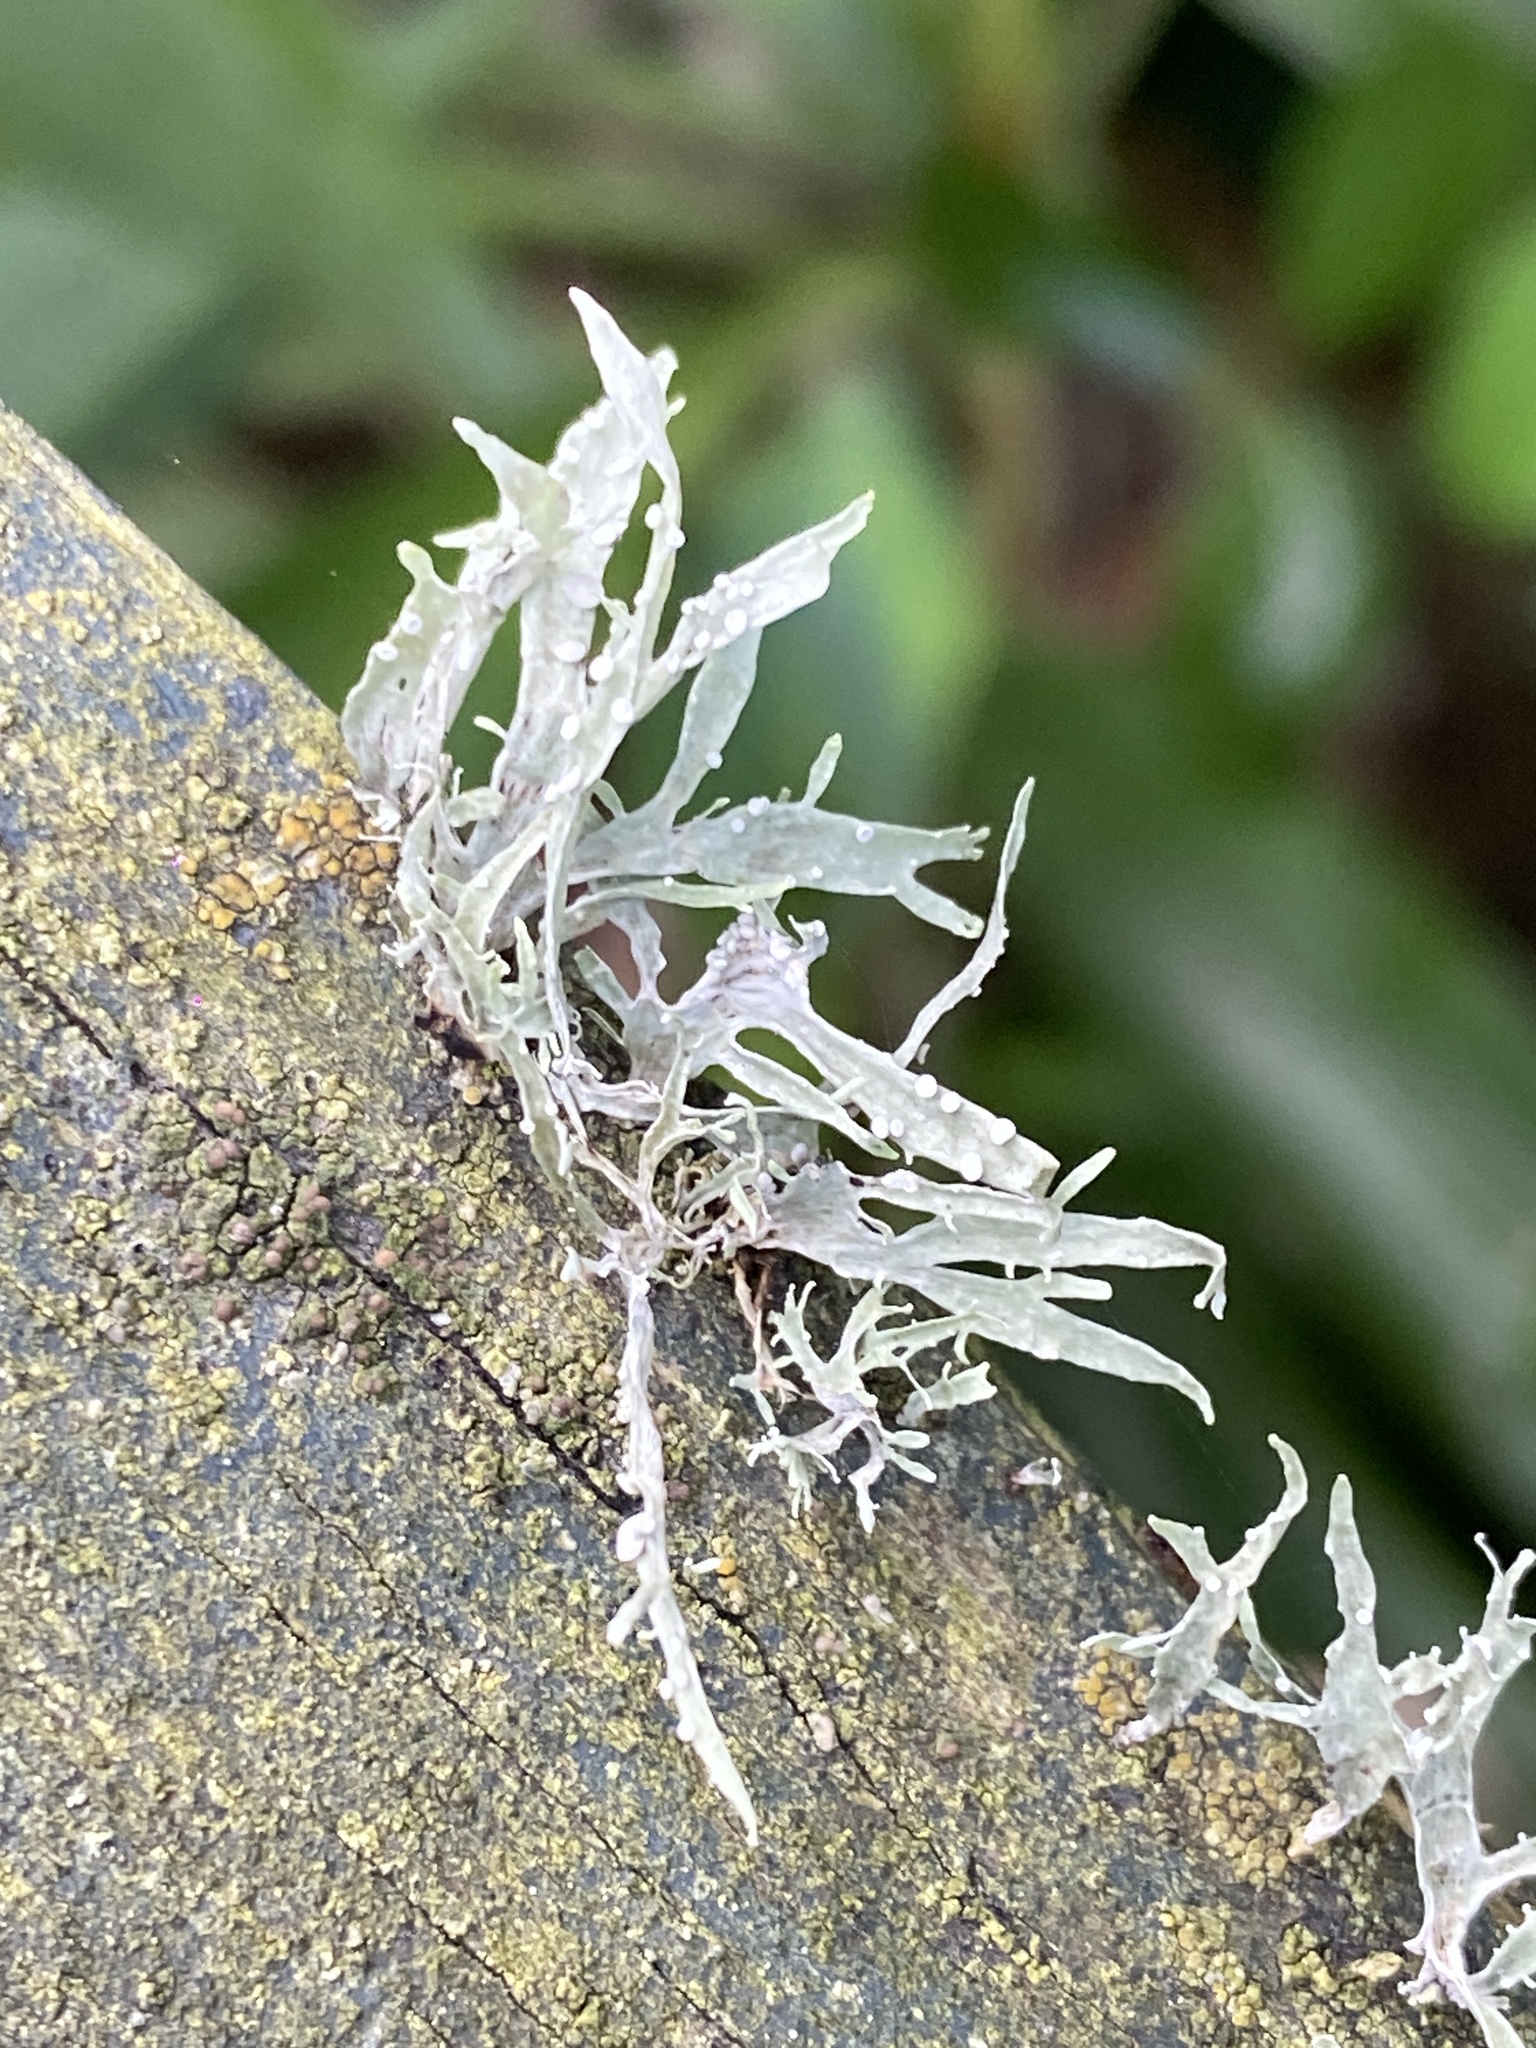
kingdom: Fungi
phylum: Ascomycota
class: Lecanoromycetes
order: Lecanorales
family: Ramalinaceae
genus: Ramalina
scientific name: Ramalina celastri
